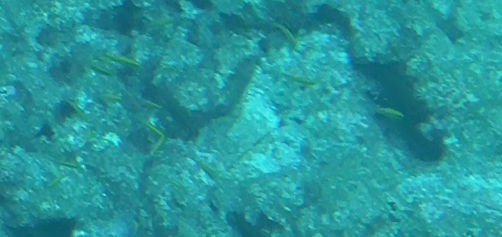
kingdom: Animalia
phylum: Chordata
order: Perciformes
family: Labridae
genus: Thalassoma
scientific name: Thalassoma bifasciatum
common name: Bluehead wrasse
